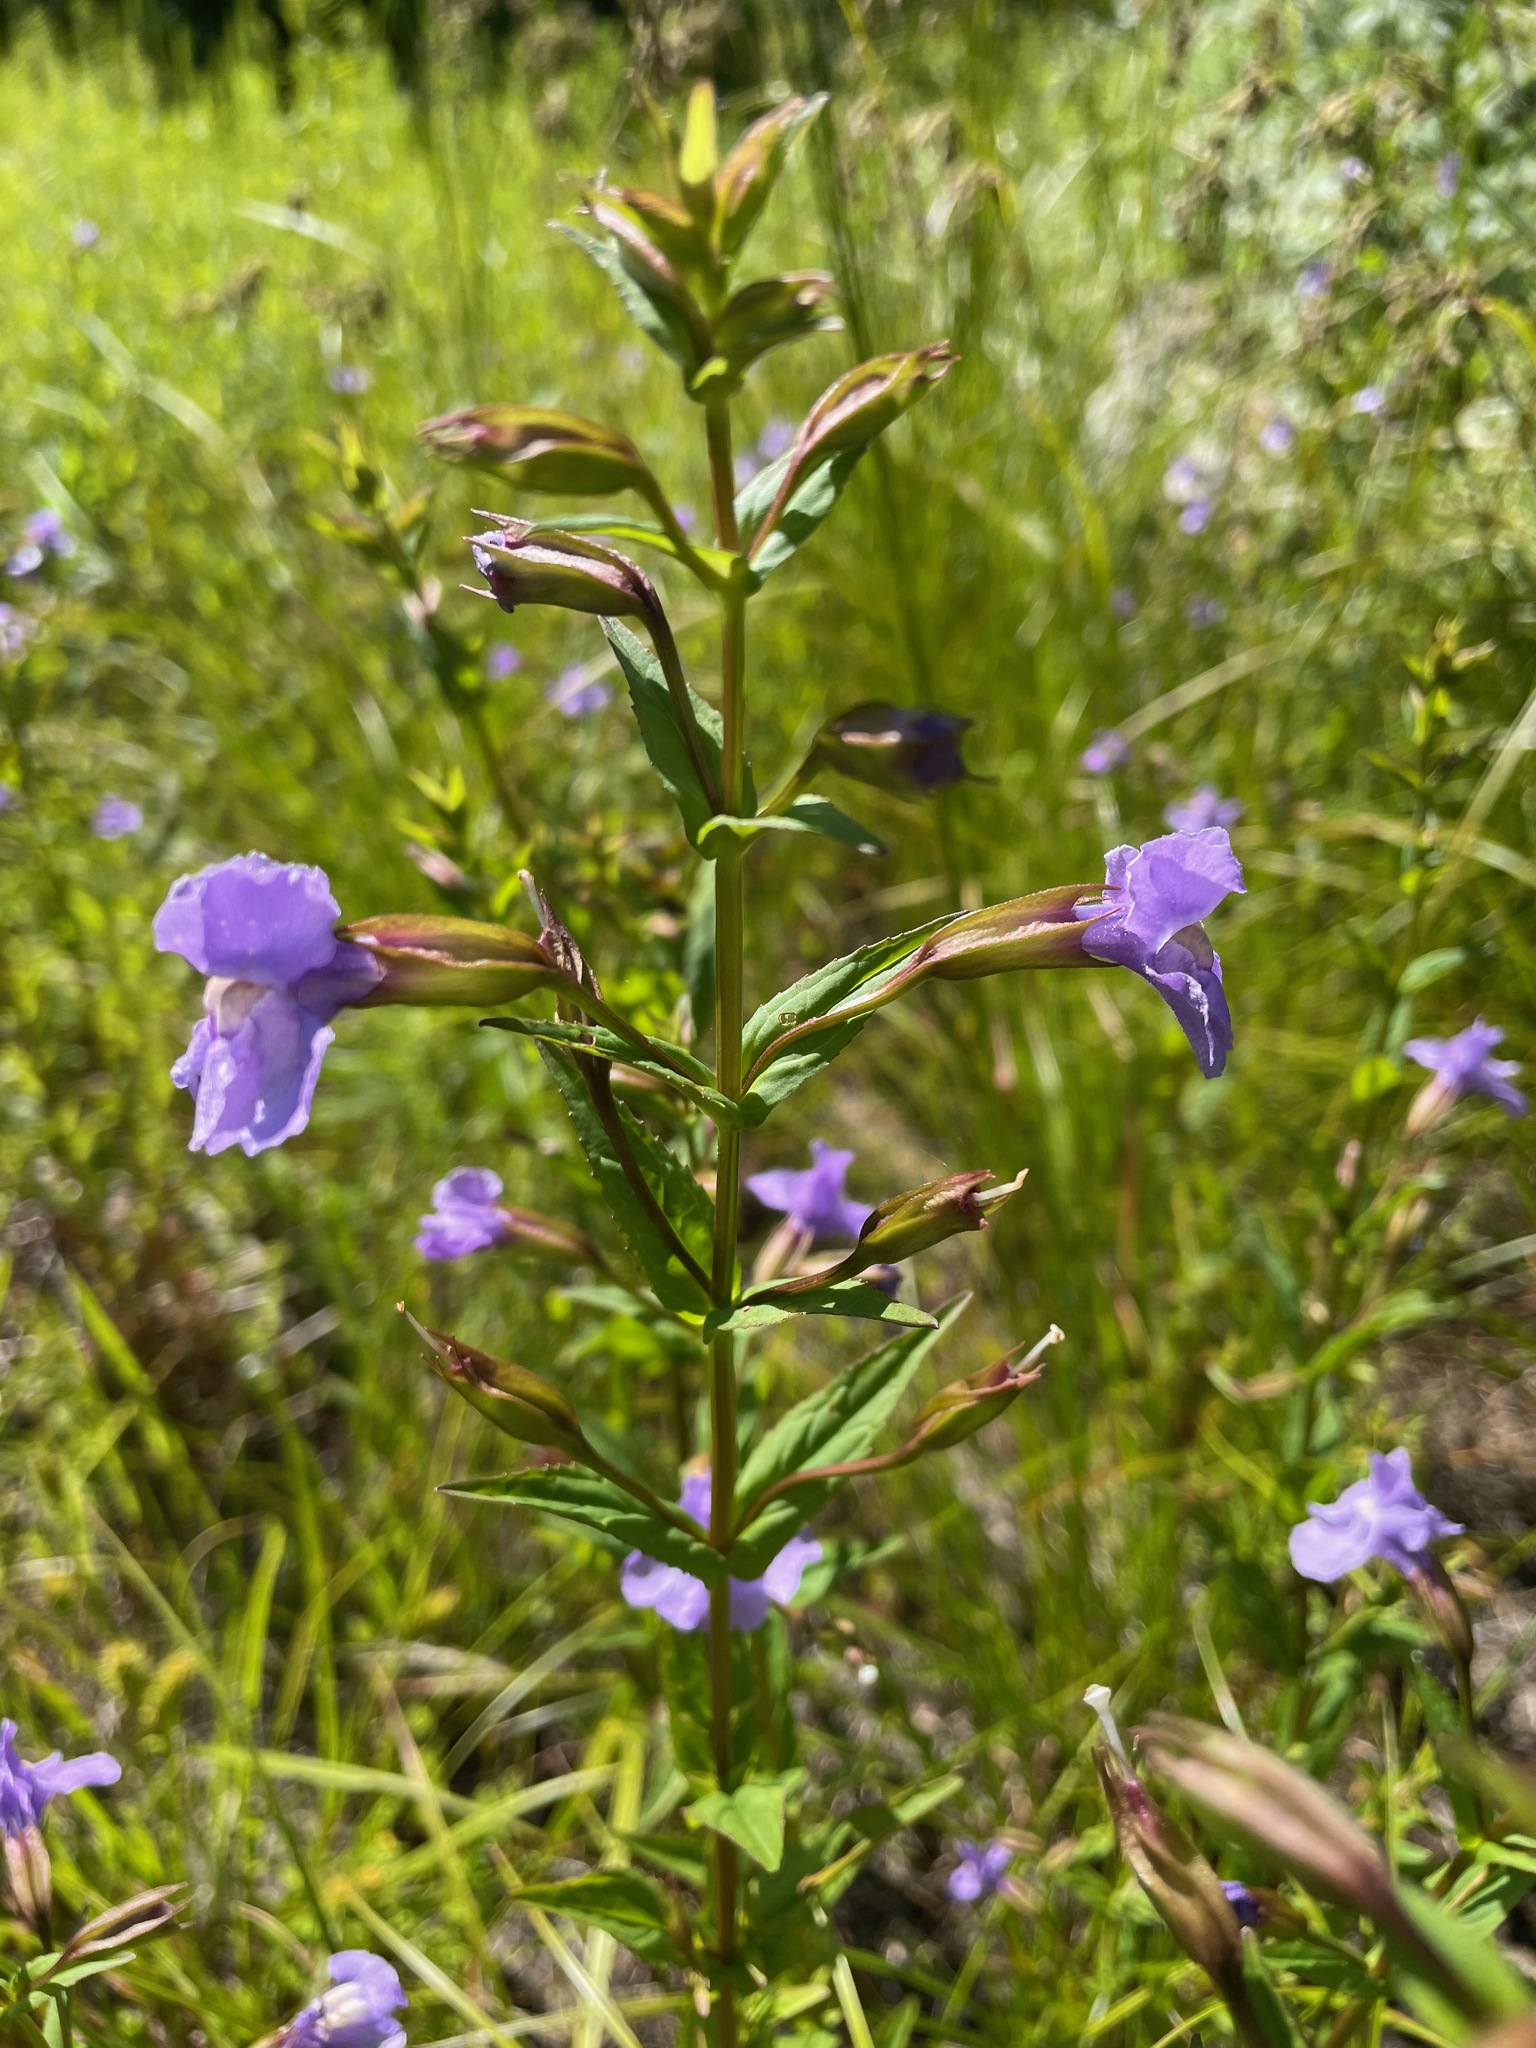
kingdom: Plantae
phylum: Tracheophyta
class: Magnoliopsida
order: Lamiales
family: Phrymaceae
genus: Mimulus
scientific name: Mimulus ringens
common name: Allegheny monkeyflower
